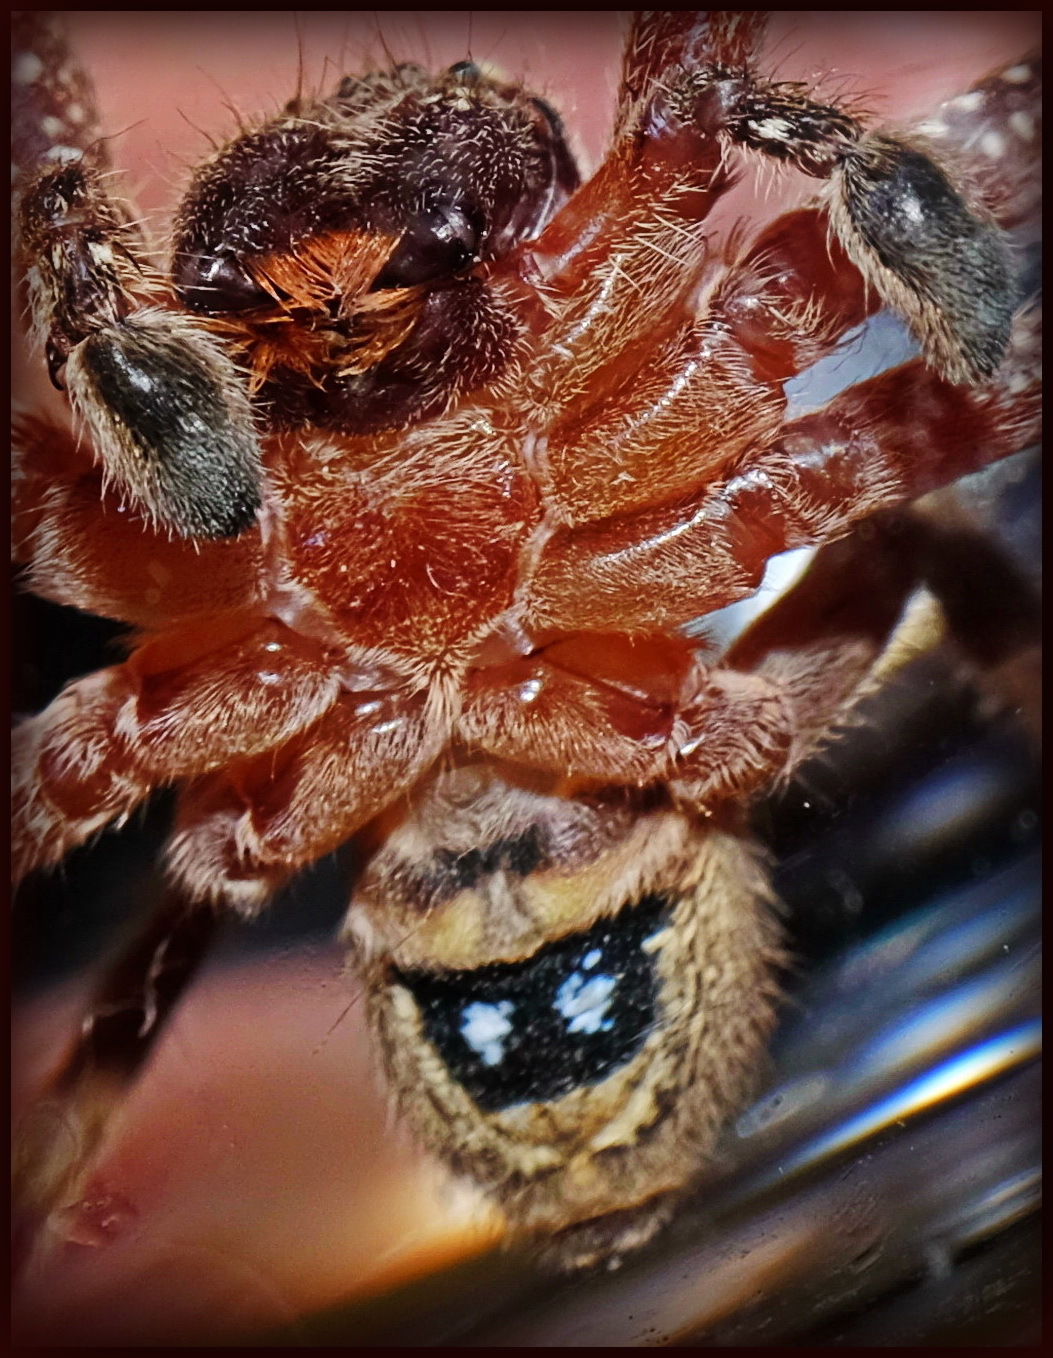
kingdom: Animalia
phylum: Arthropoda
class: Arachnida
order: Araneae
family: Sparassidae
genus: Neosparassus
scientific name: Neosparassus diana
